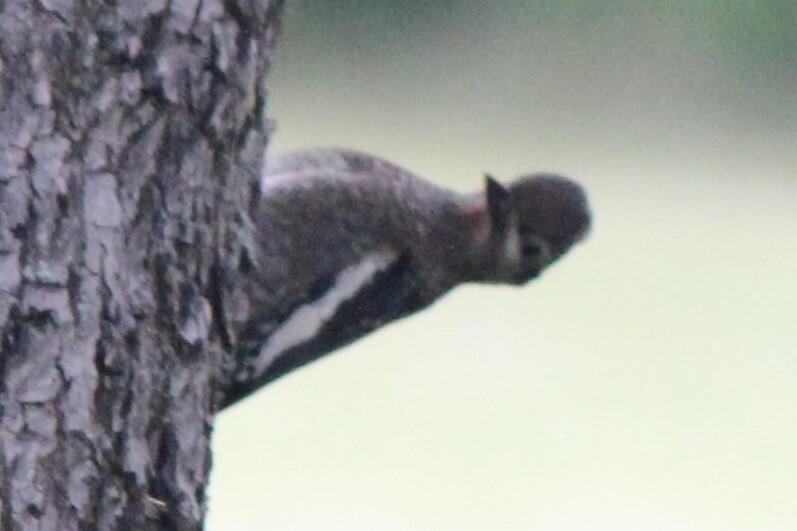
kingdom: Animalia
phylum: Chordata
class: Aves
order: Piciformes
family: Picidae
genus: Sphyrapicus
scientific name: Sphyrapicus varius
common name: Yellow-bellied sapsucker
